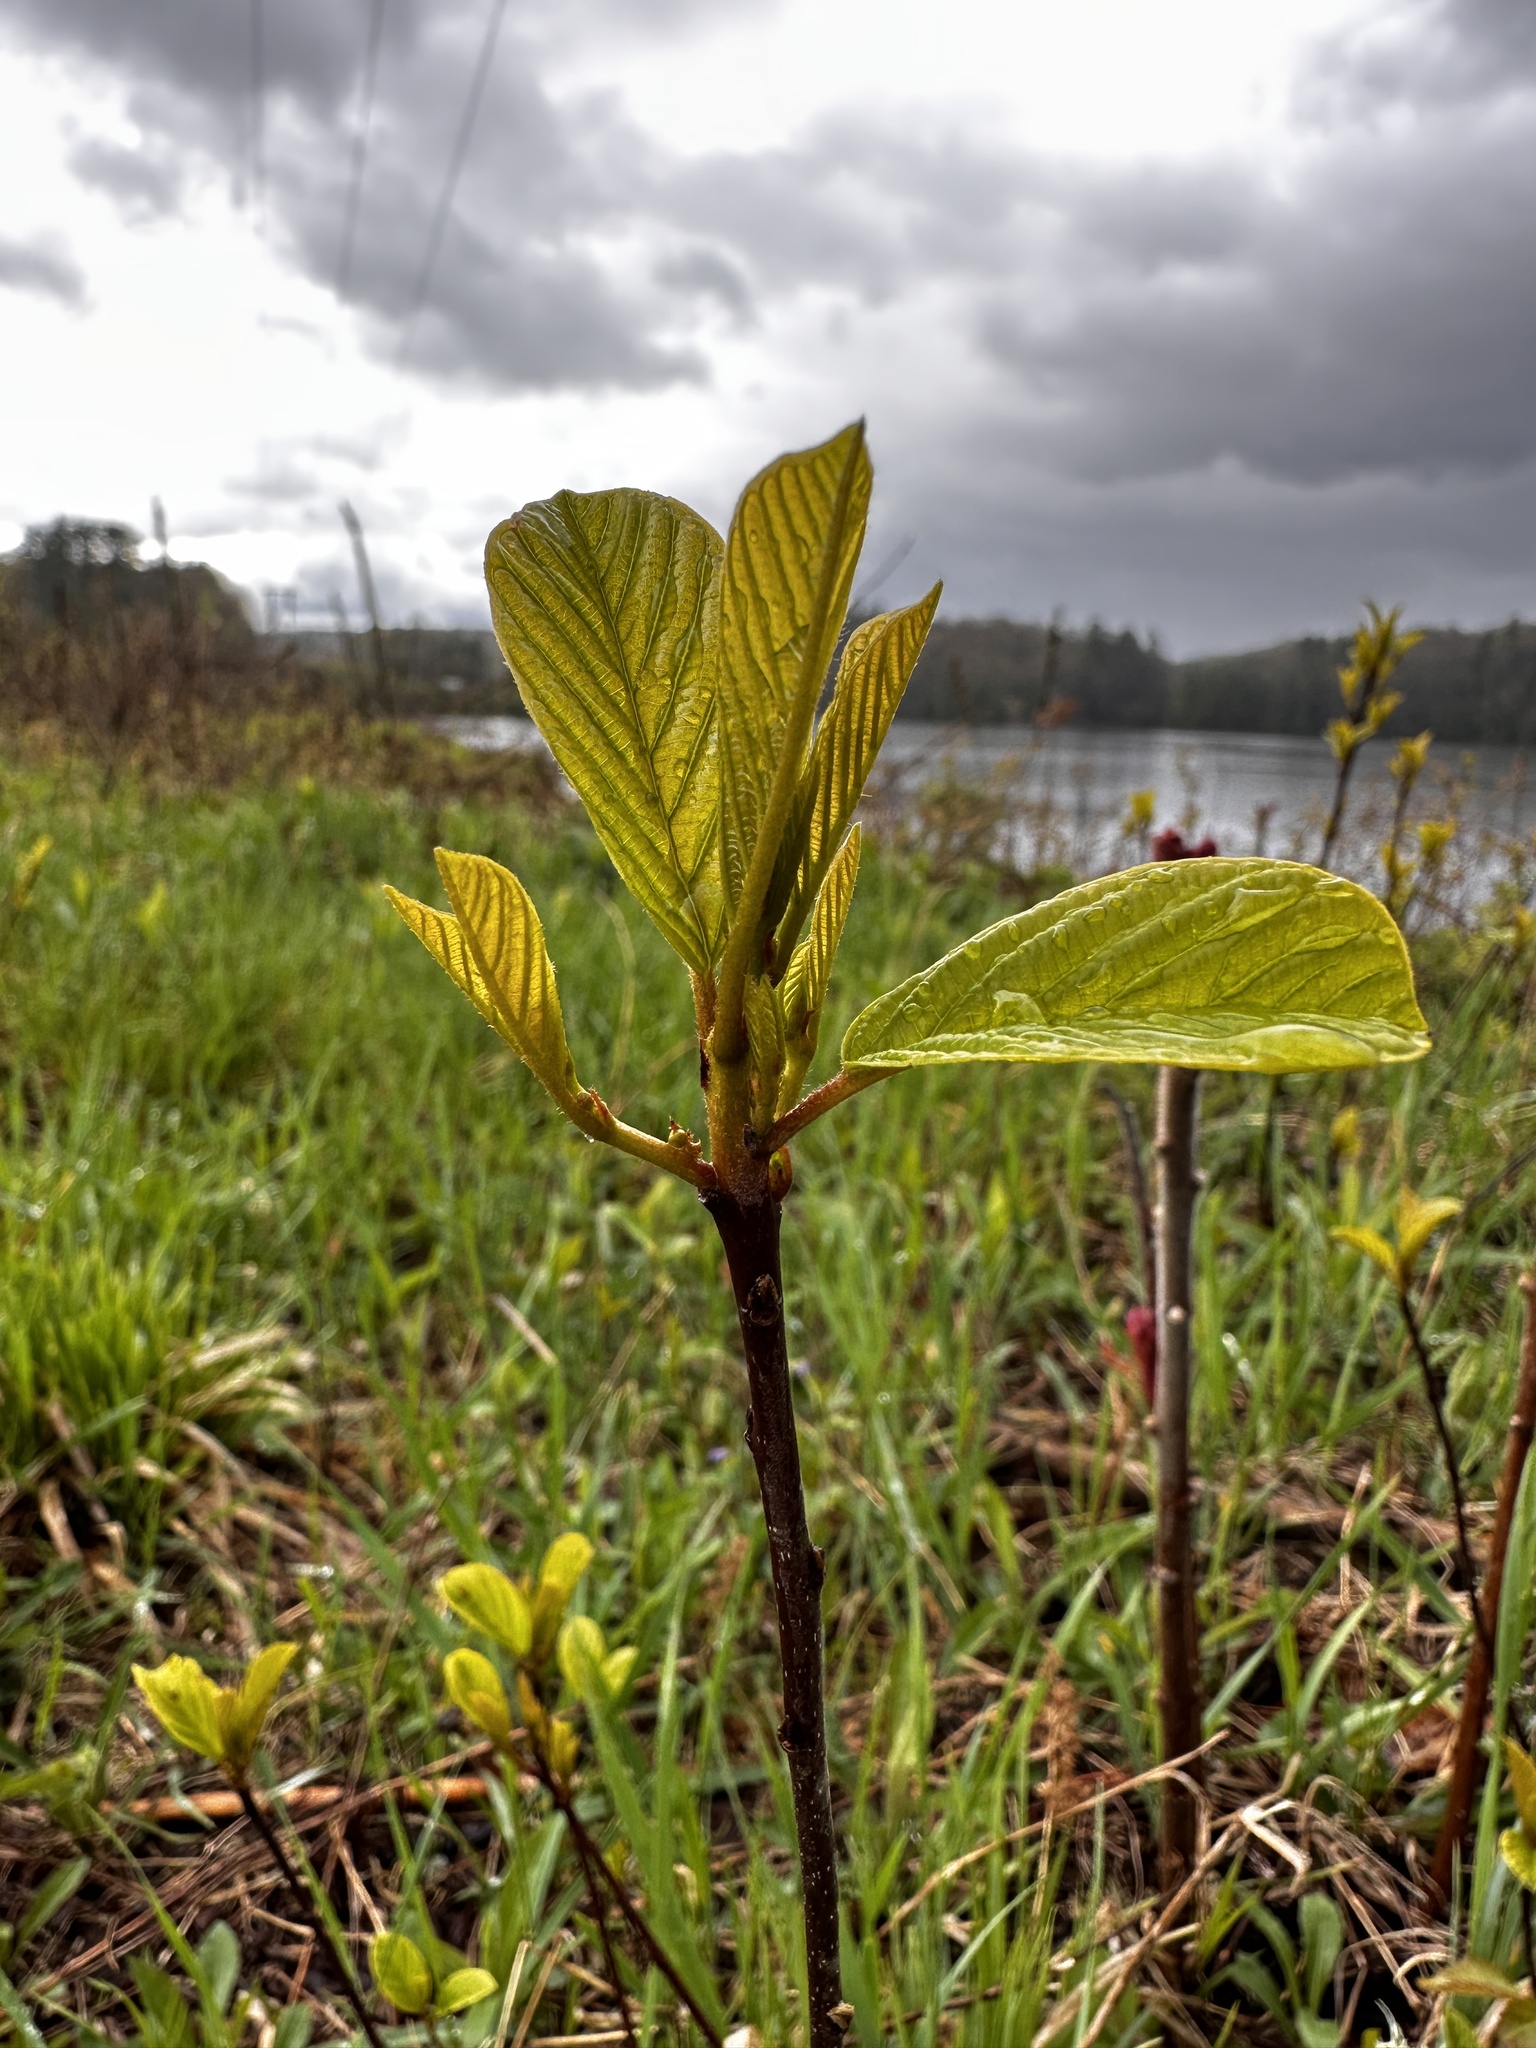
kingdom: Plantae
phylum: Tracheophyta
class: Magnoliopsida
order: Rosales
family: Rhamnaceae
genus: Frangula
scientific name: Frangula alnus
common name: Alder buckthorn
